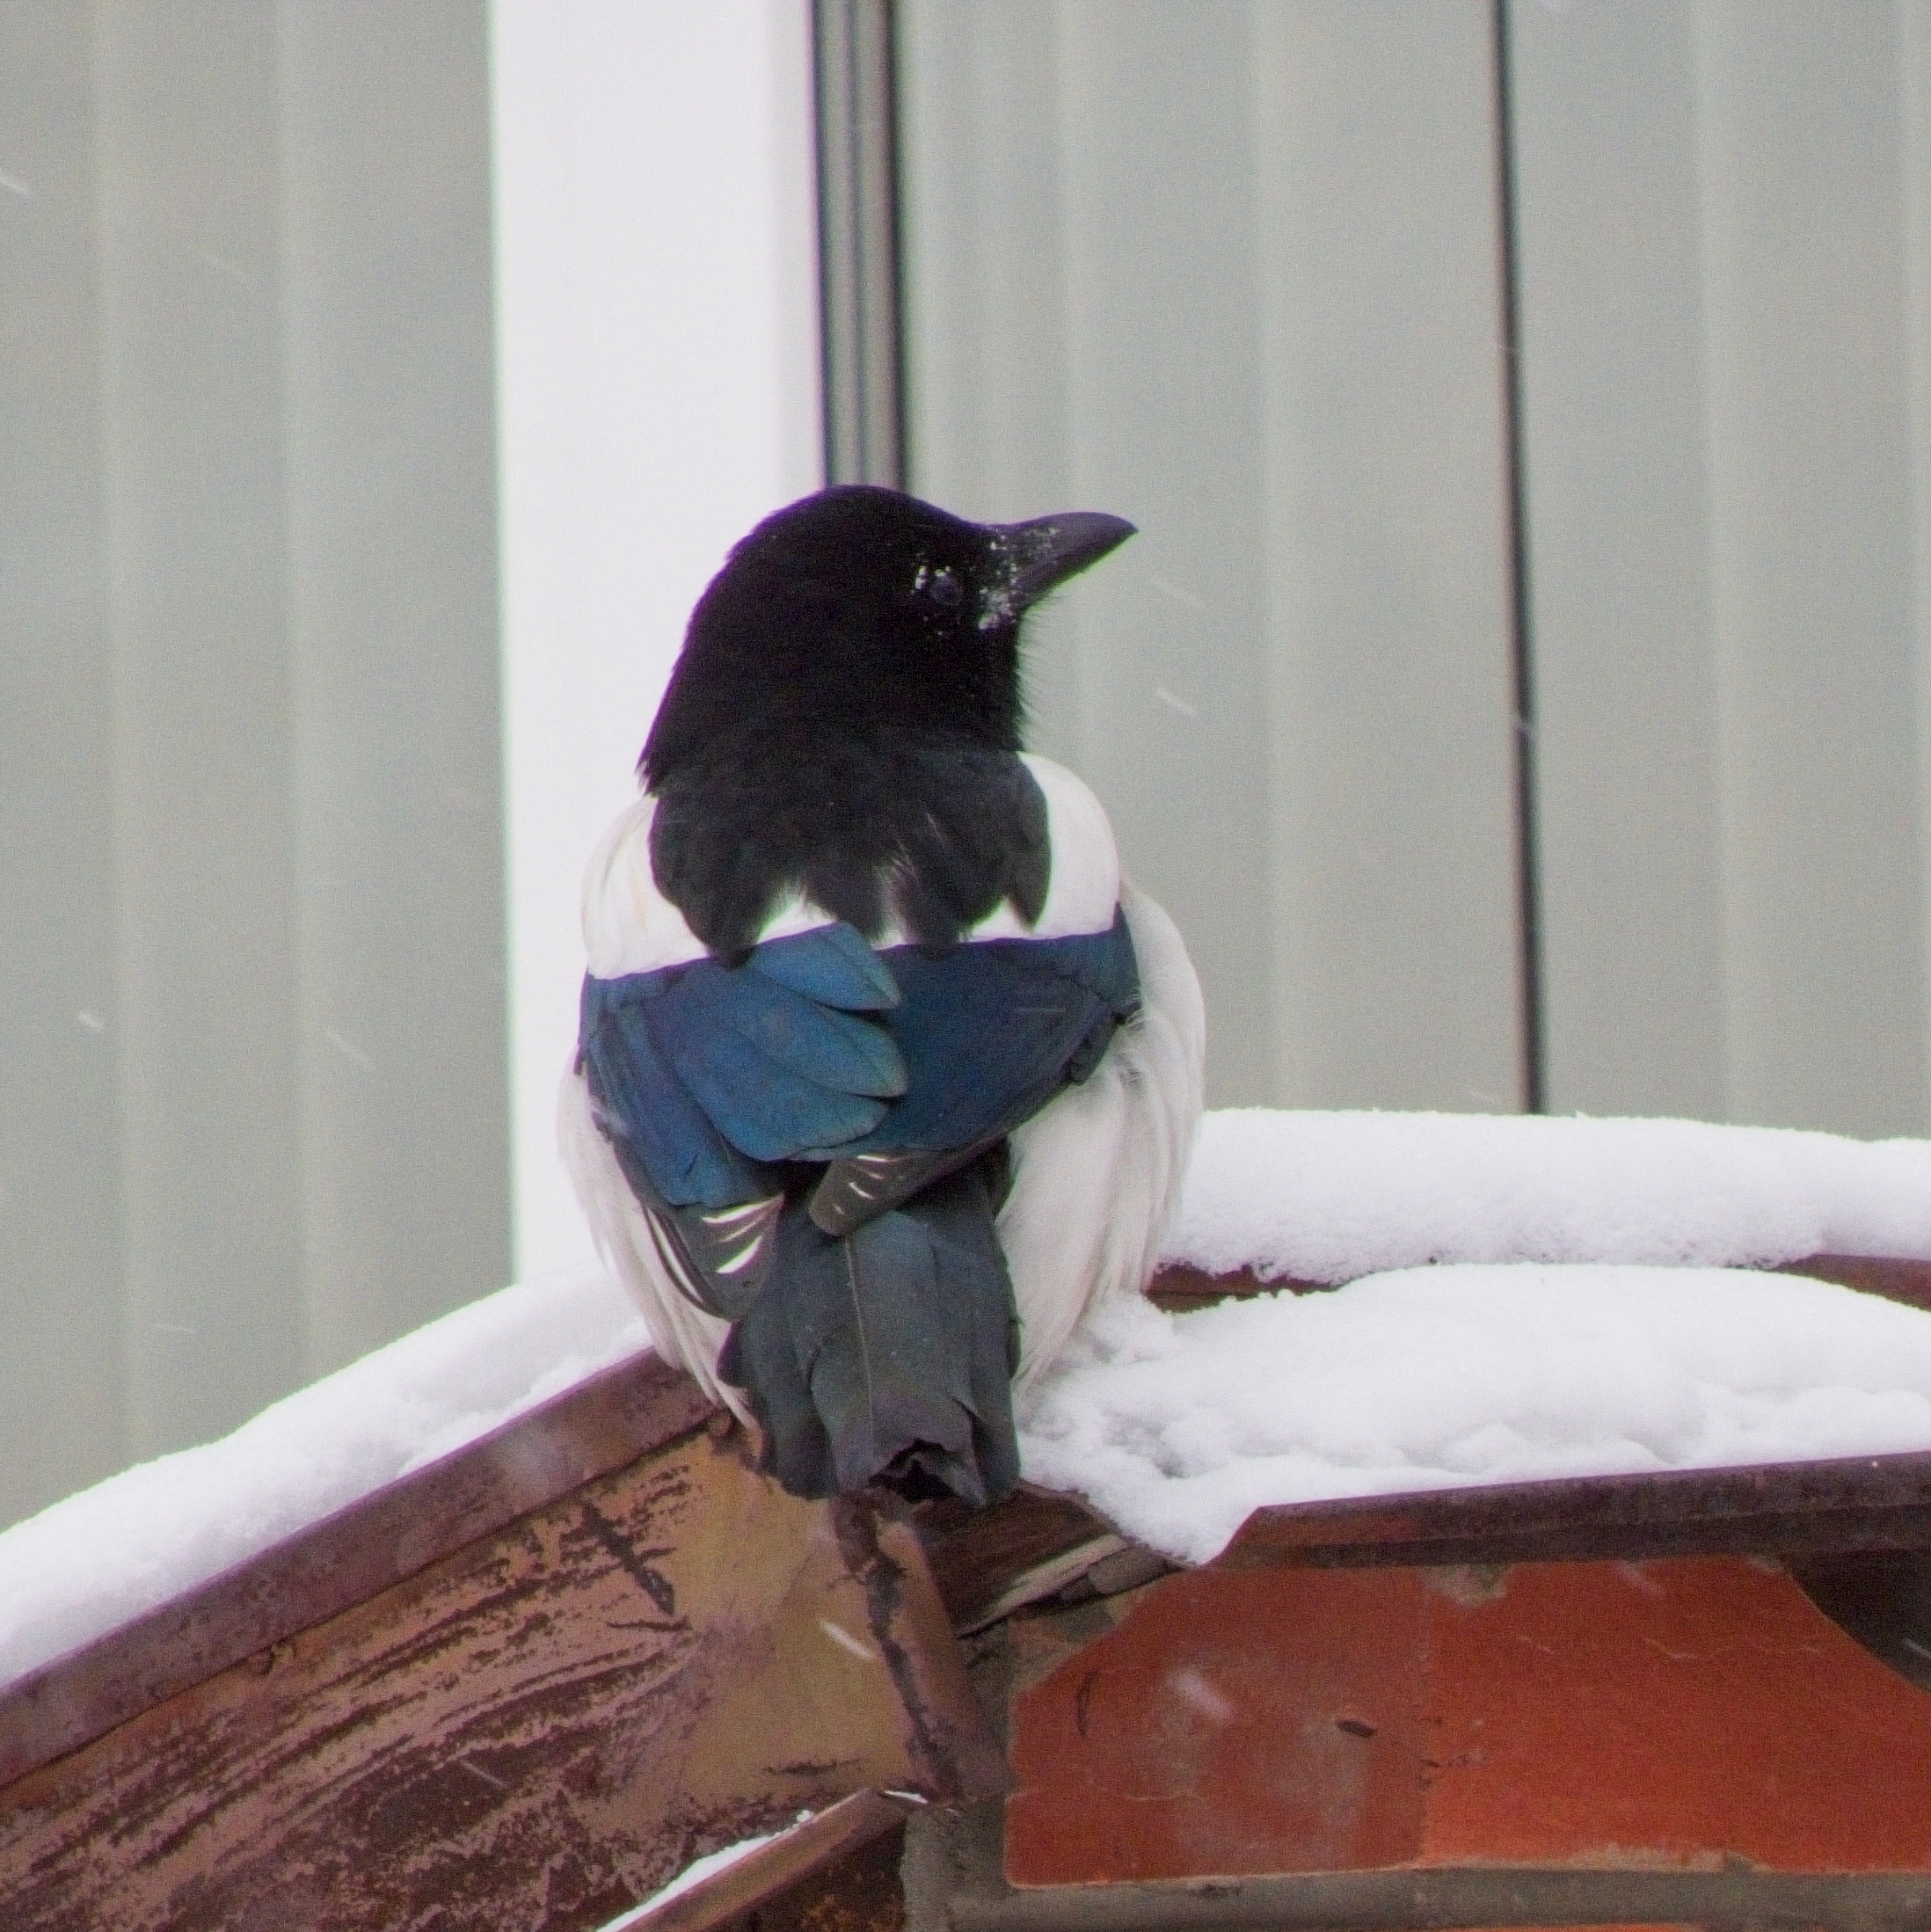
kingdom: Animalia
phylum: Chordata
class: Aves
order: Passeriformes
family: Corvidae
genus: Pica
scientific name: Pica pica
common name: Eurasian magpie
